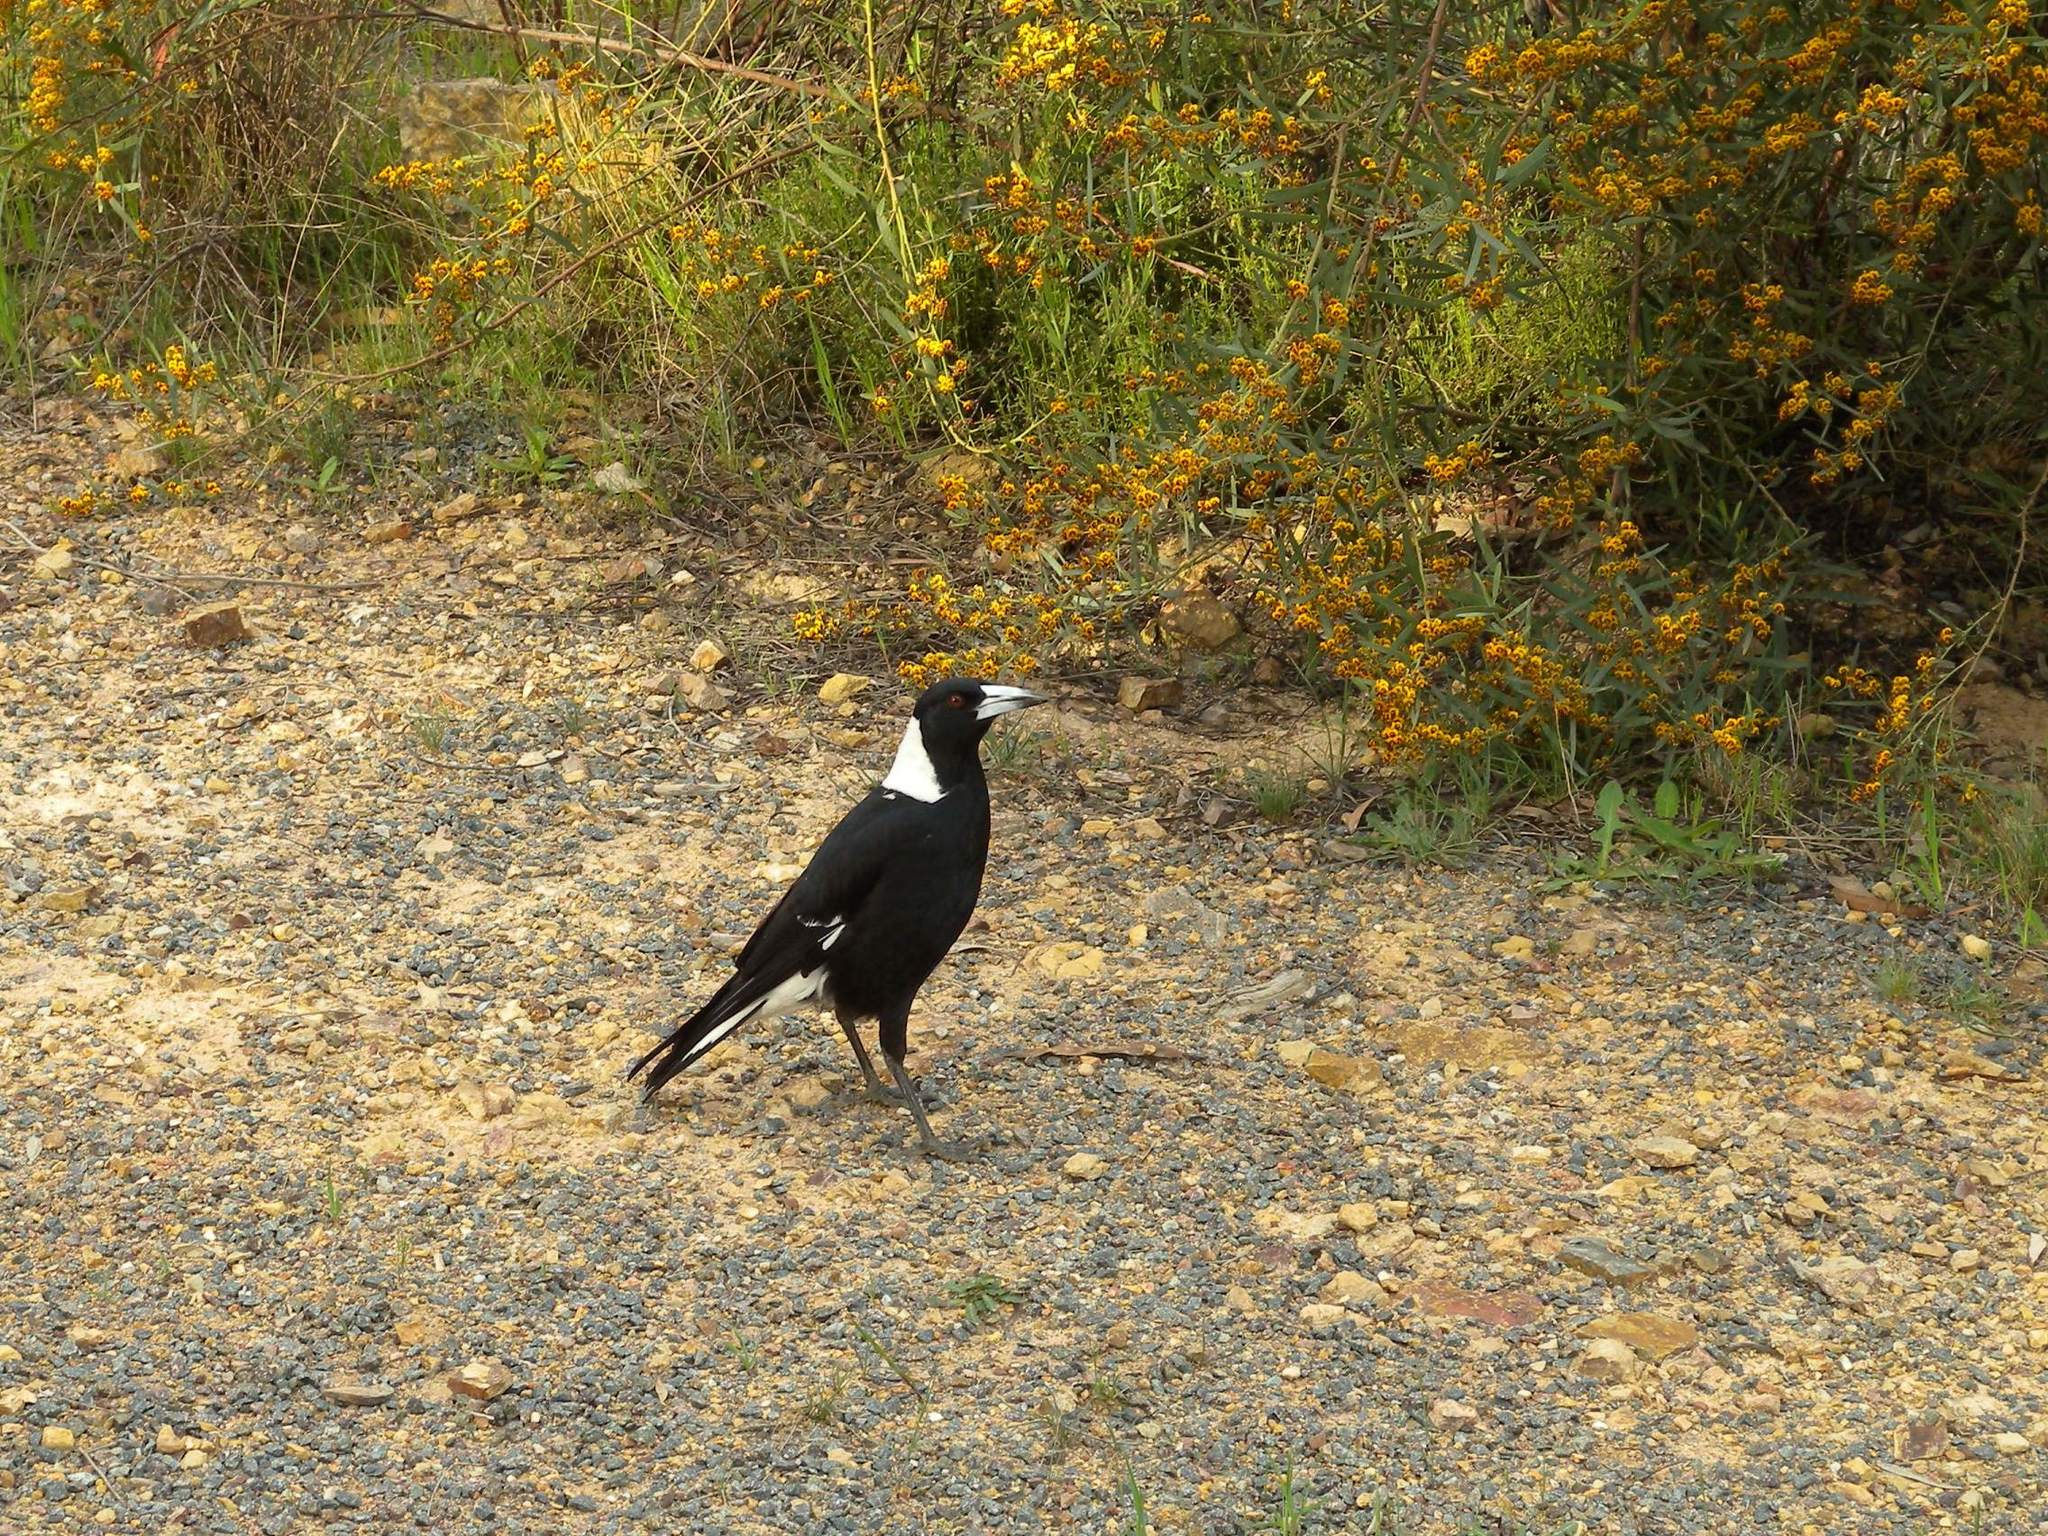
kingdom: Animalia
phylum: Chordata
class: Aves
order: Passeriformes
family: Cracticidae
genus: Gymnorhina
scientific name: Gymnorhina tibicen
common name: Australian magpie
